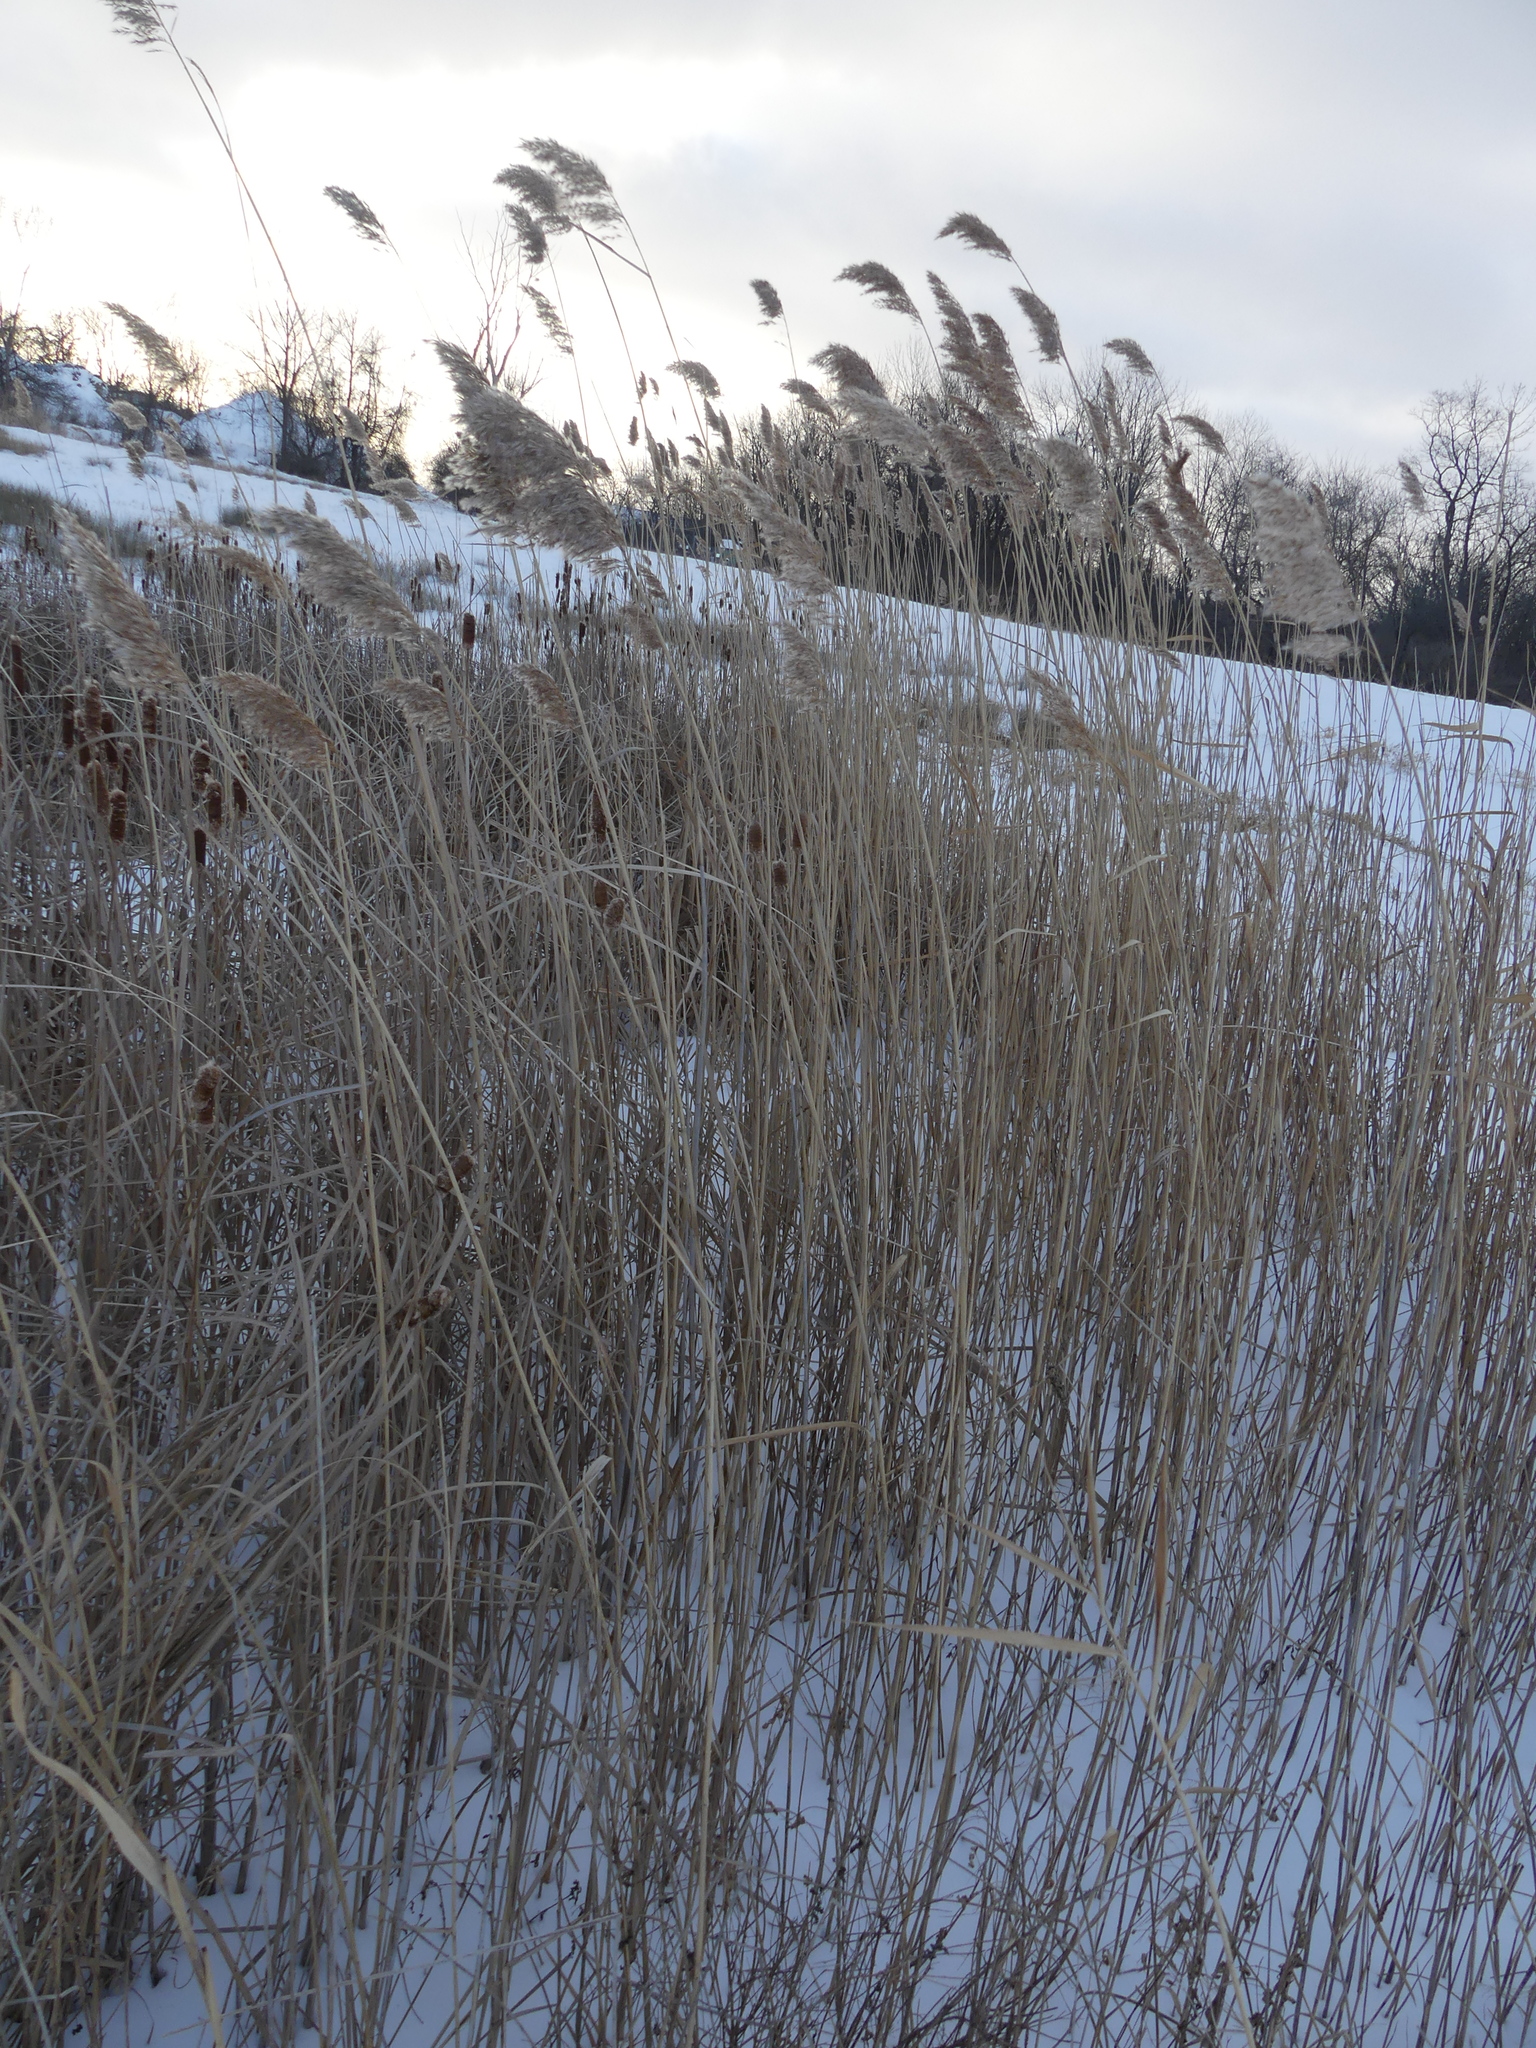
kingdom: Plantae
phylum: Tracheophyta
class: Liliopsida
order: Poales
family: Poaceae
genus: Phragmites
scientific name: Phragmites australis
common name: Common reed
